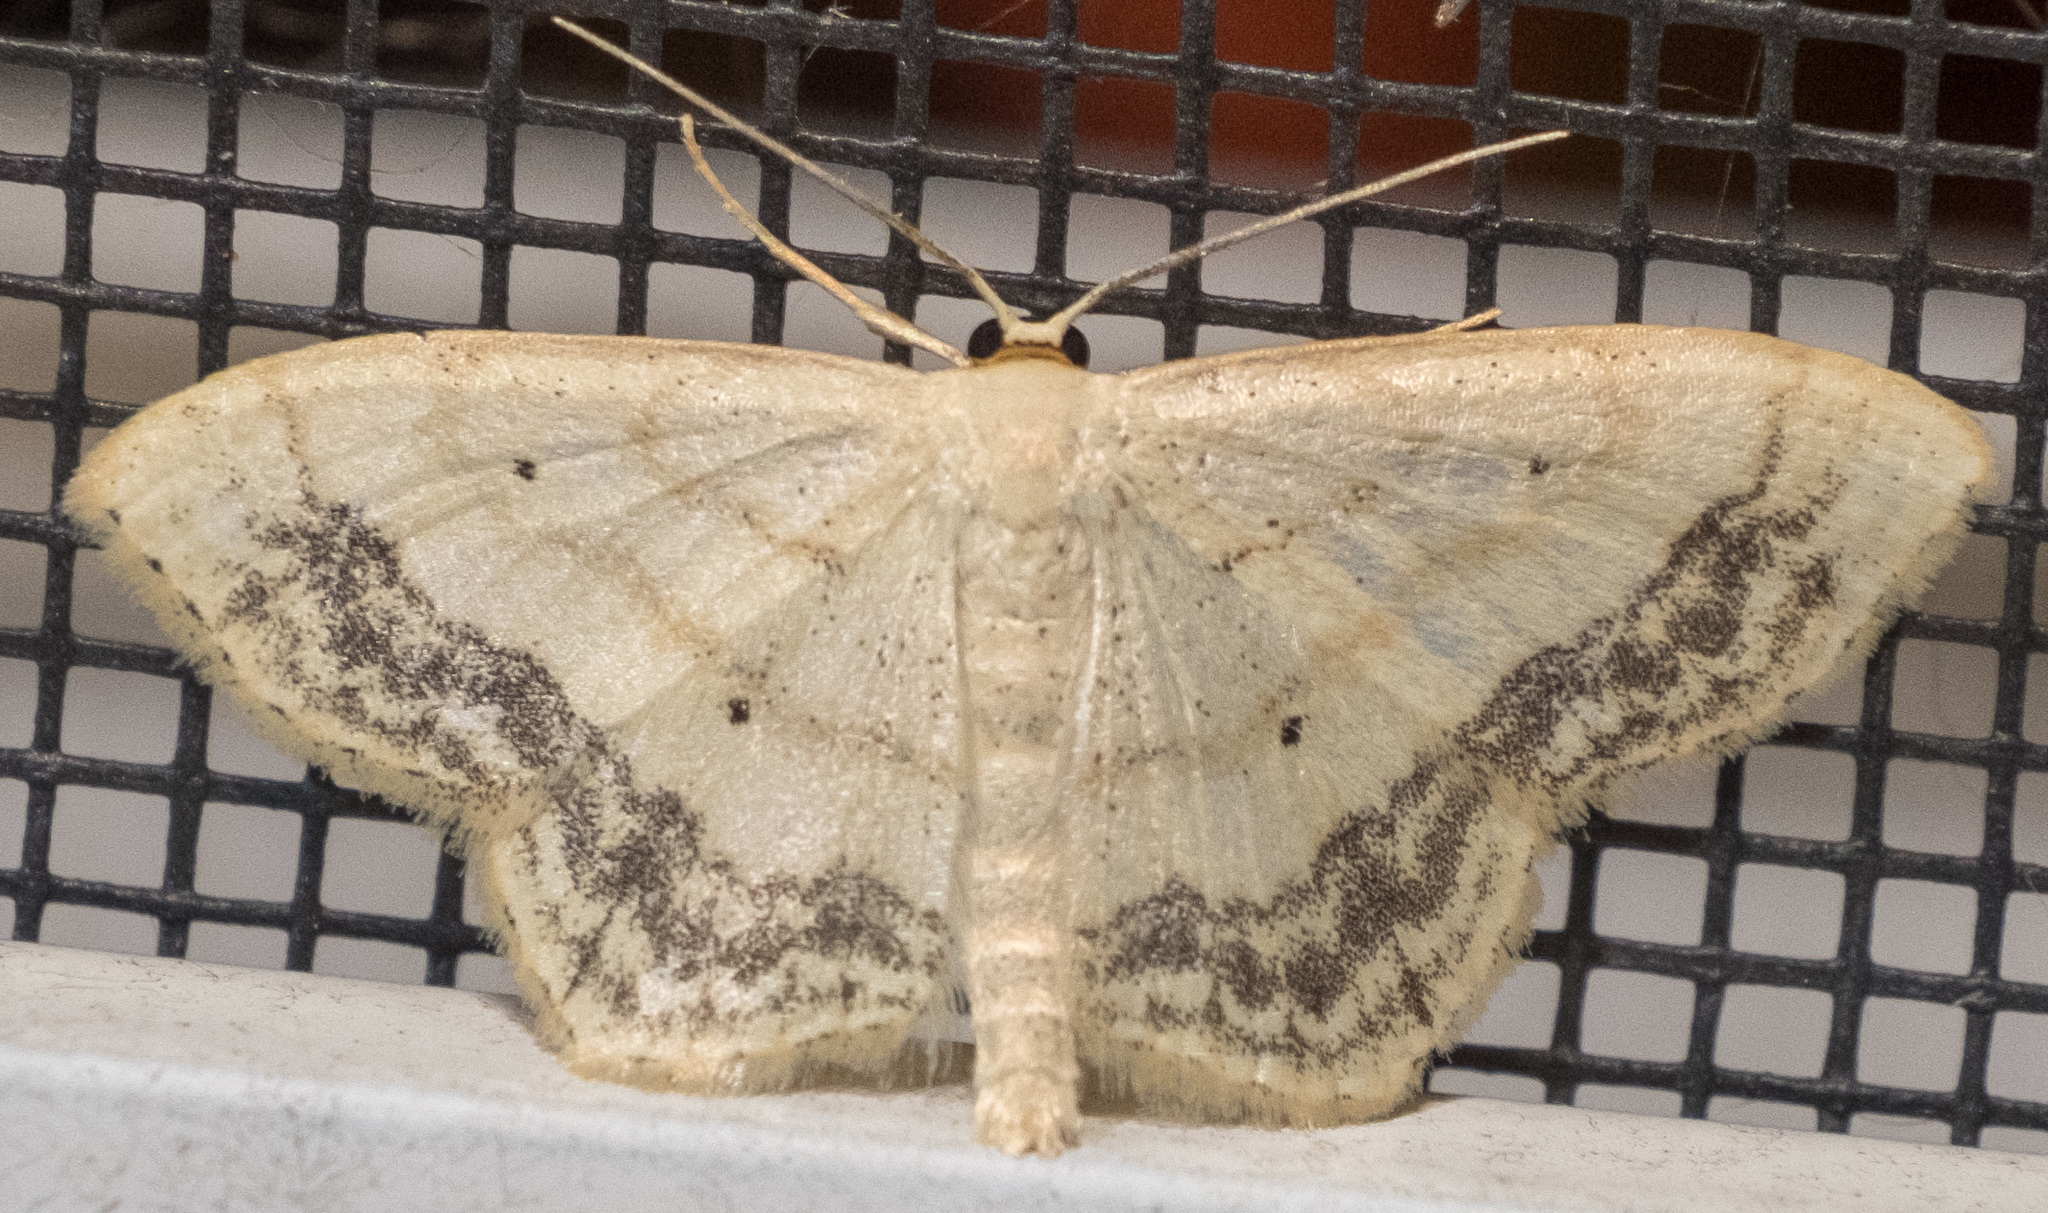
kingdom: Animalia
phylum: Arthropoda
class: Insecta
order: Lepidoptera
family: Geometridae
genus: Scopula
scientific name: Scopula limboundata
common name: Large lace border
